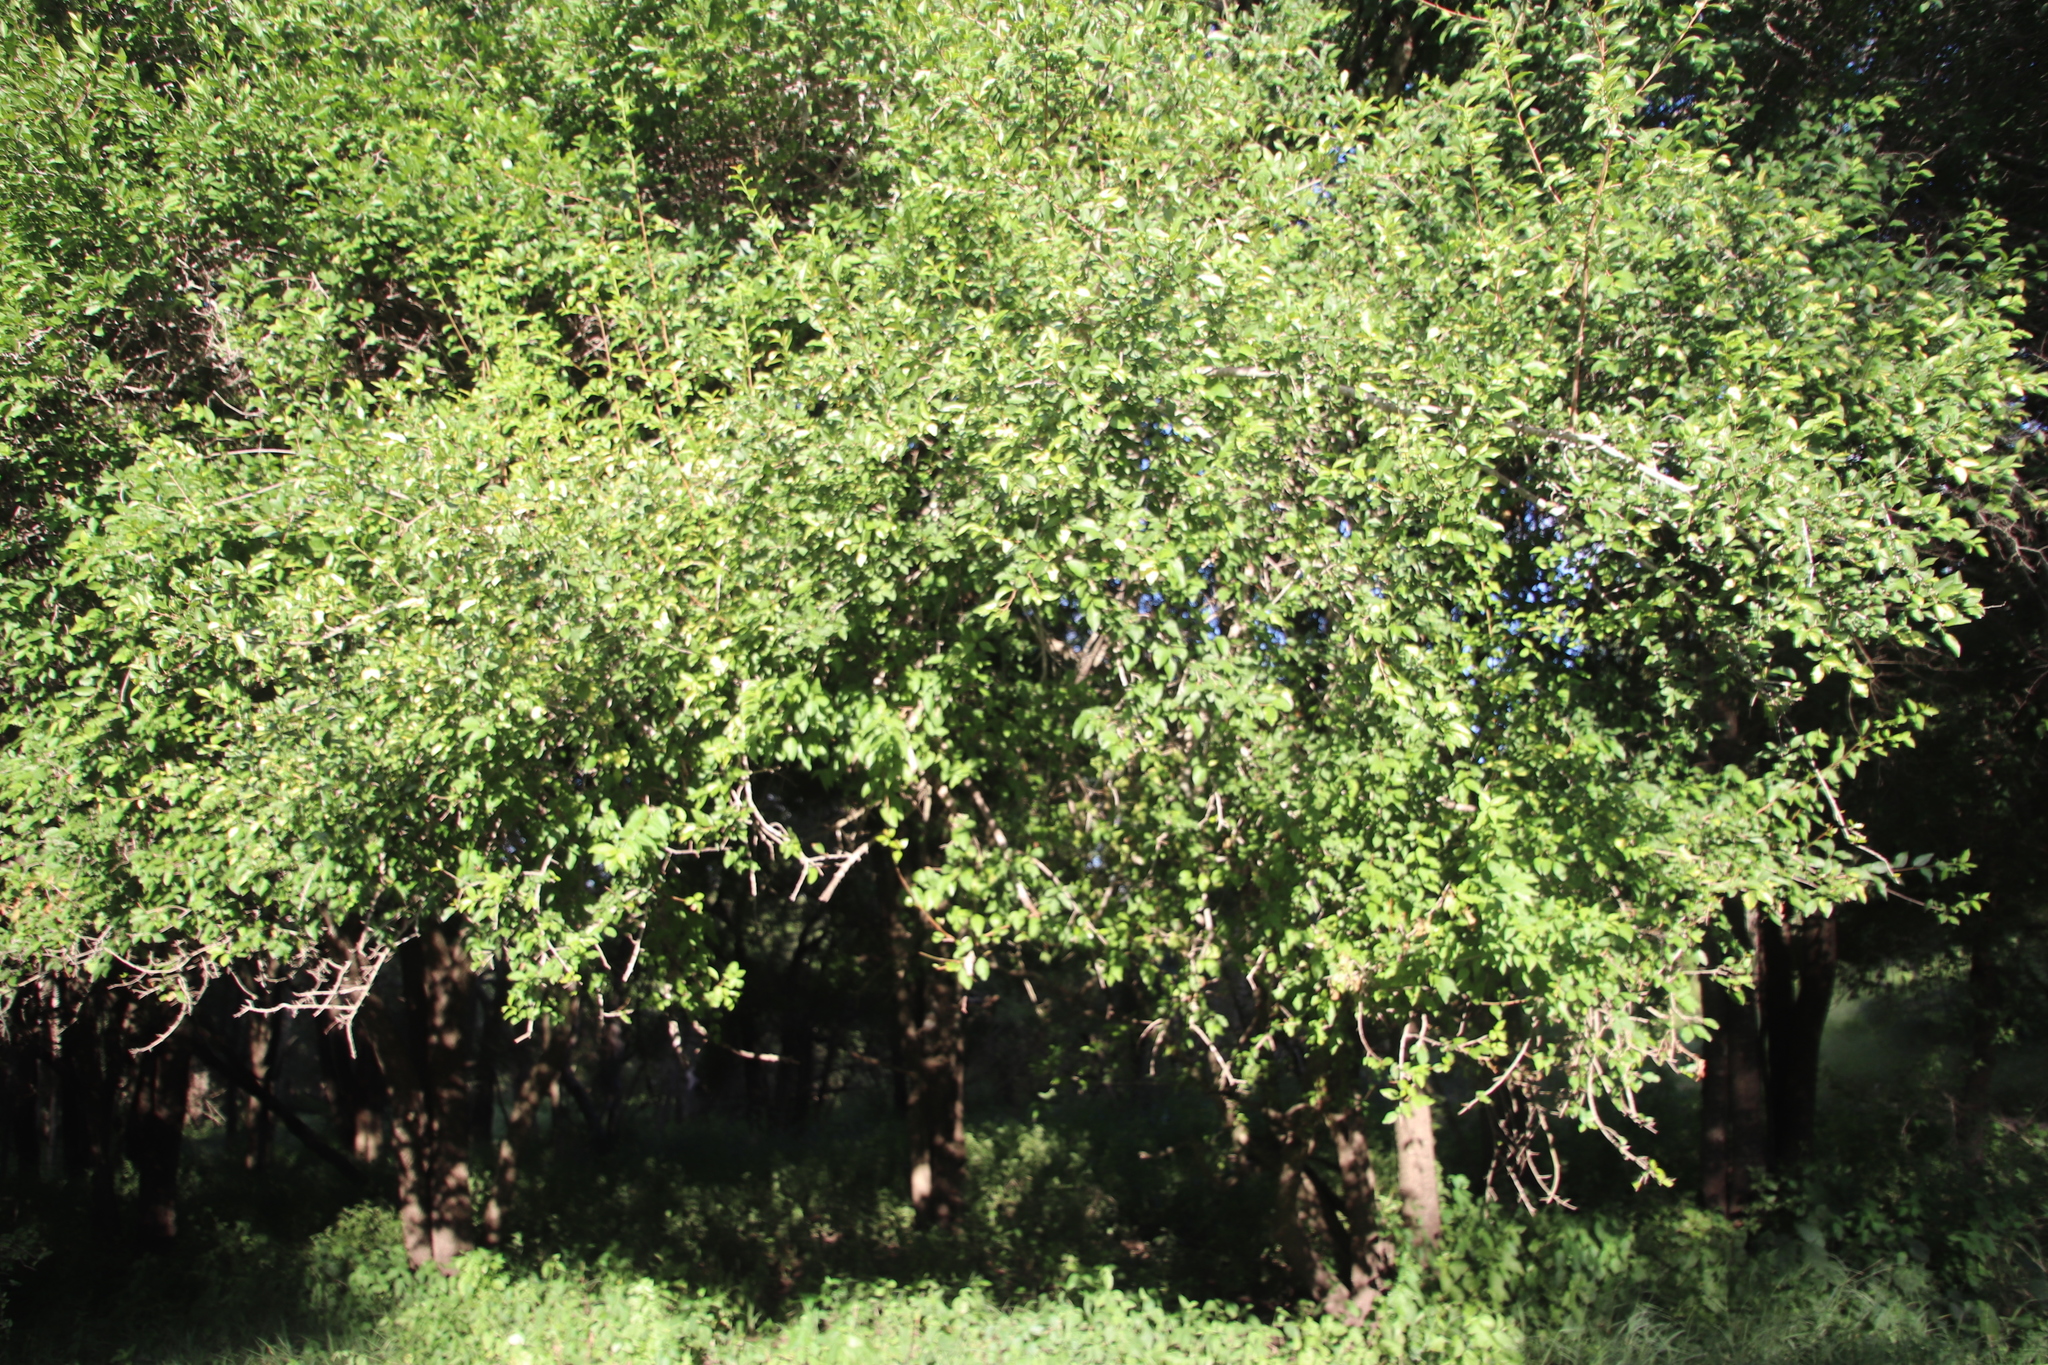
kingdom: Plantae
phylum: Tracheophyta
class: Magnoliopsida
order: Malpighiales
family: Euphorbiaceae
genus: Spirostachys
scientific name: Spirostachys africana
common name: Tamboti
